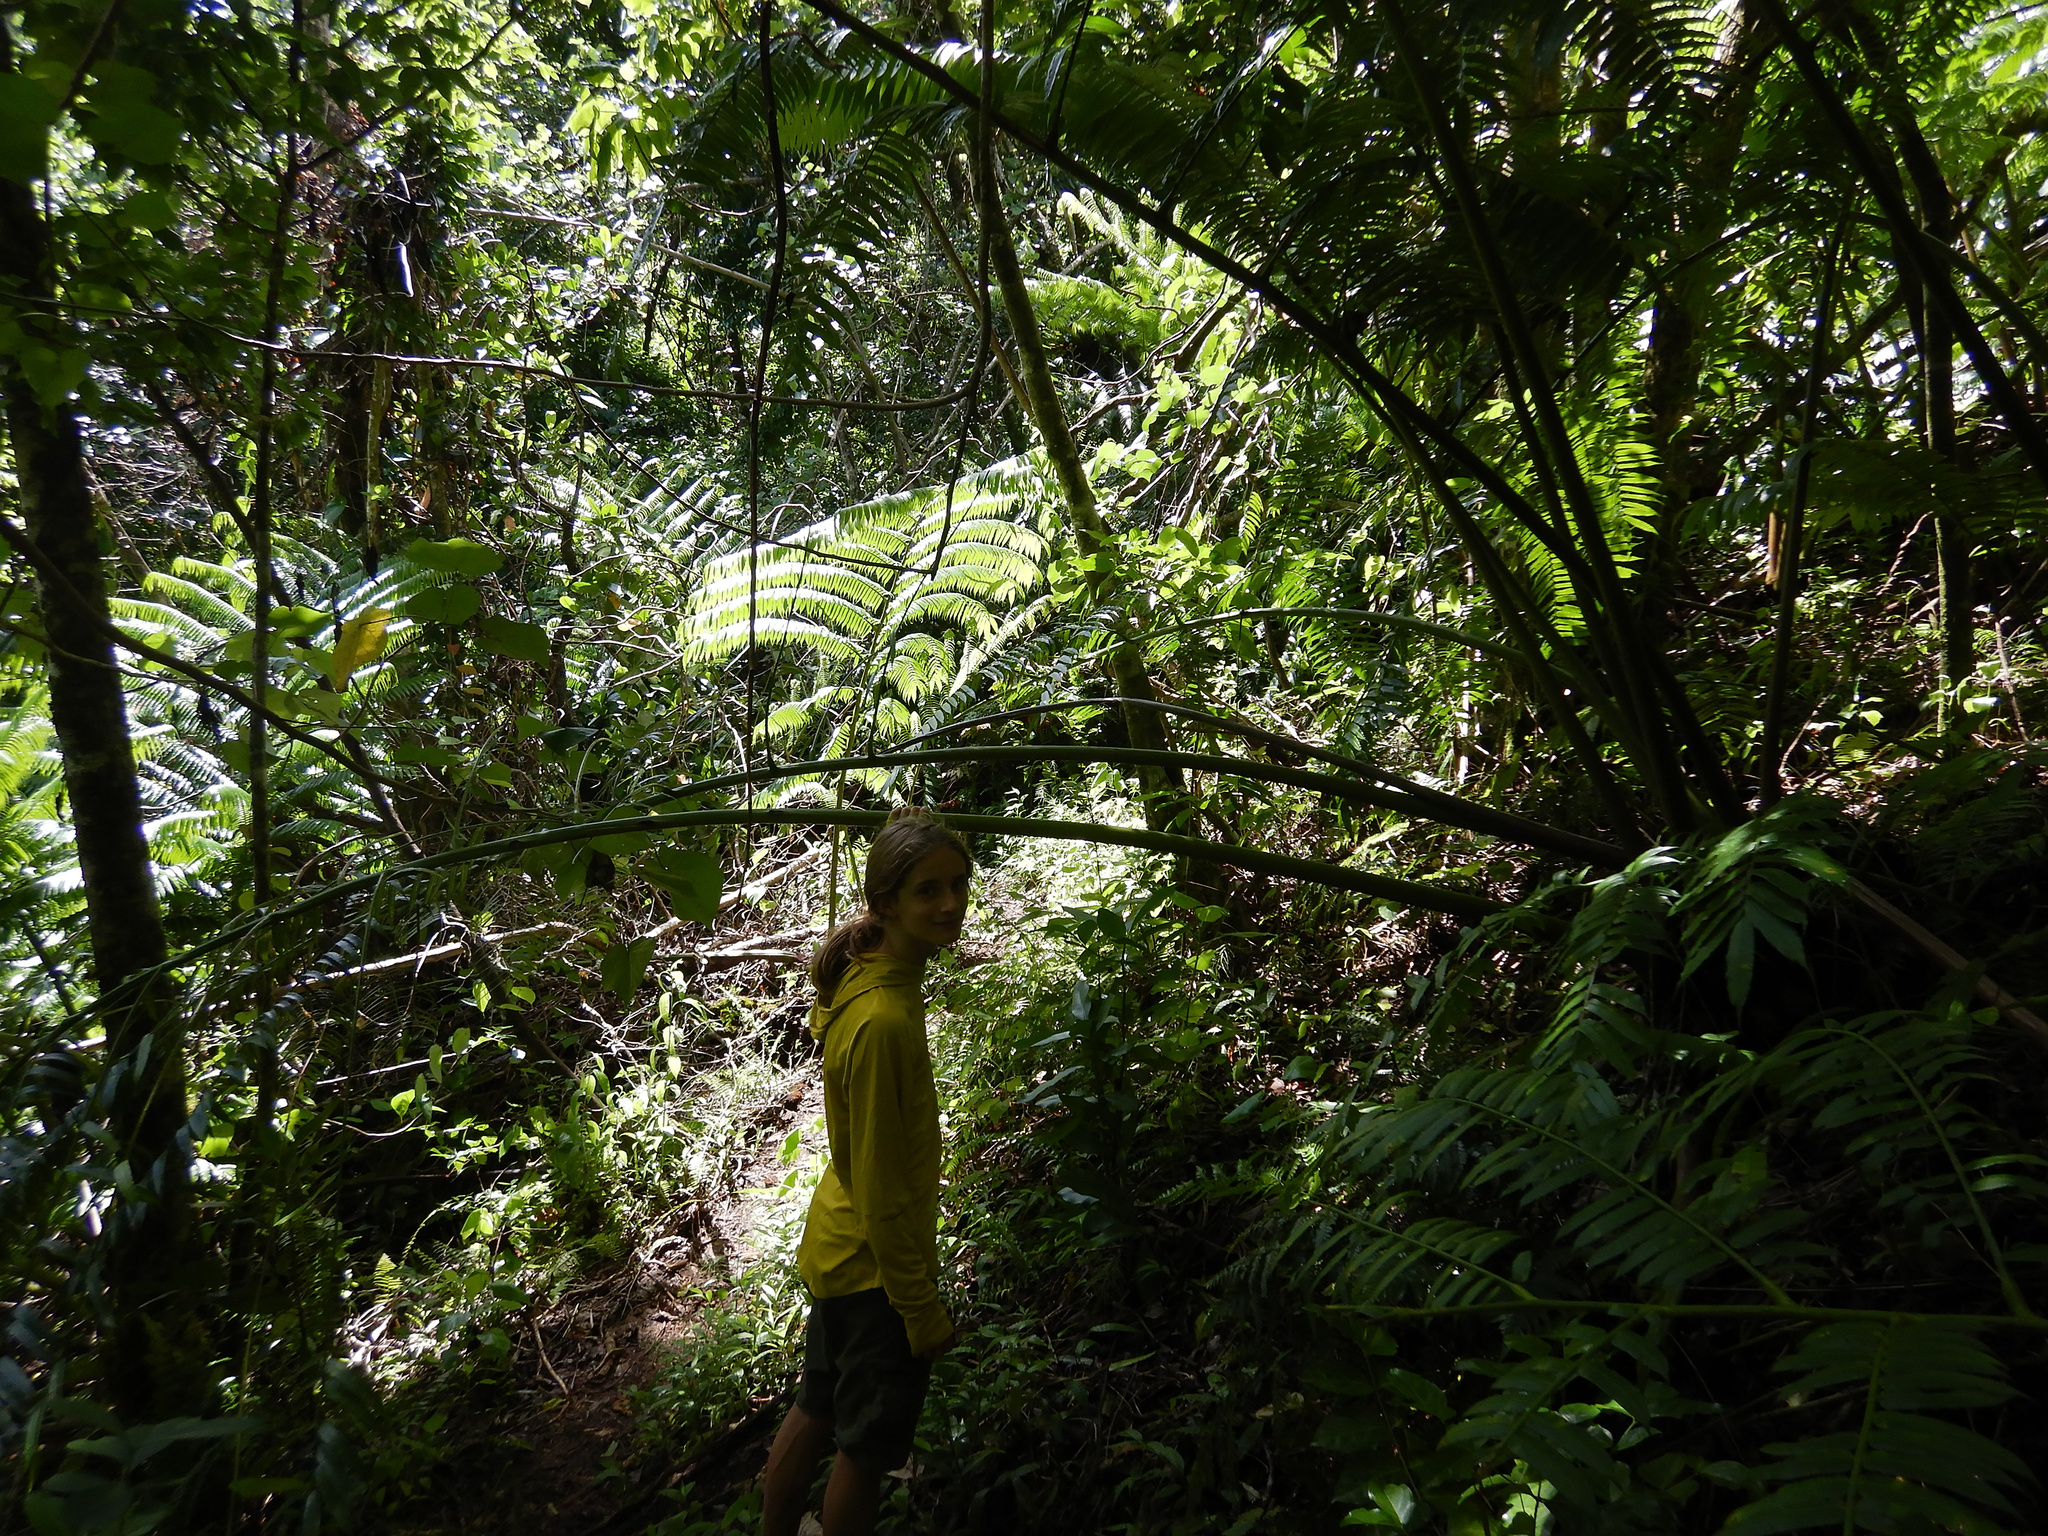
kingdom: Plantae
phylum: Tracheophyta
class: Polypodiopsida
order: Marattiales
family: Marattiaceae
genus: Angiopteris
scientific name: Angiopteris evecta
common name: Mule's-foot fern
